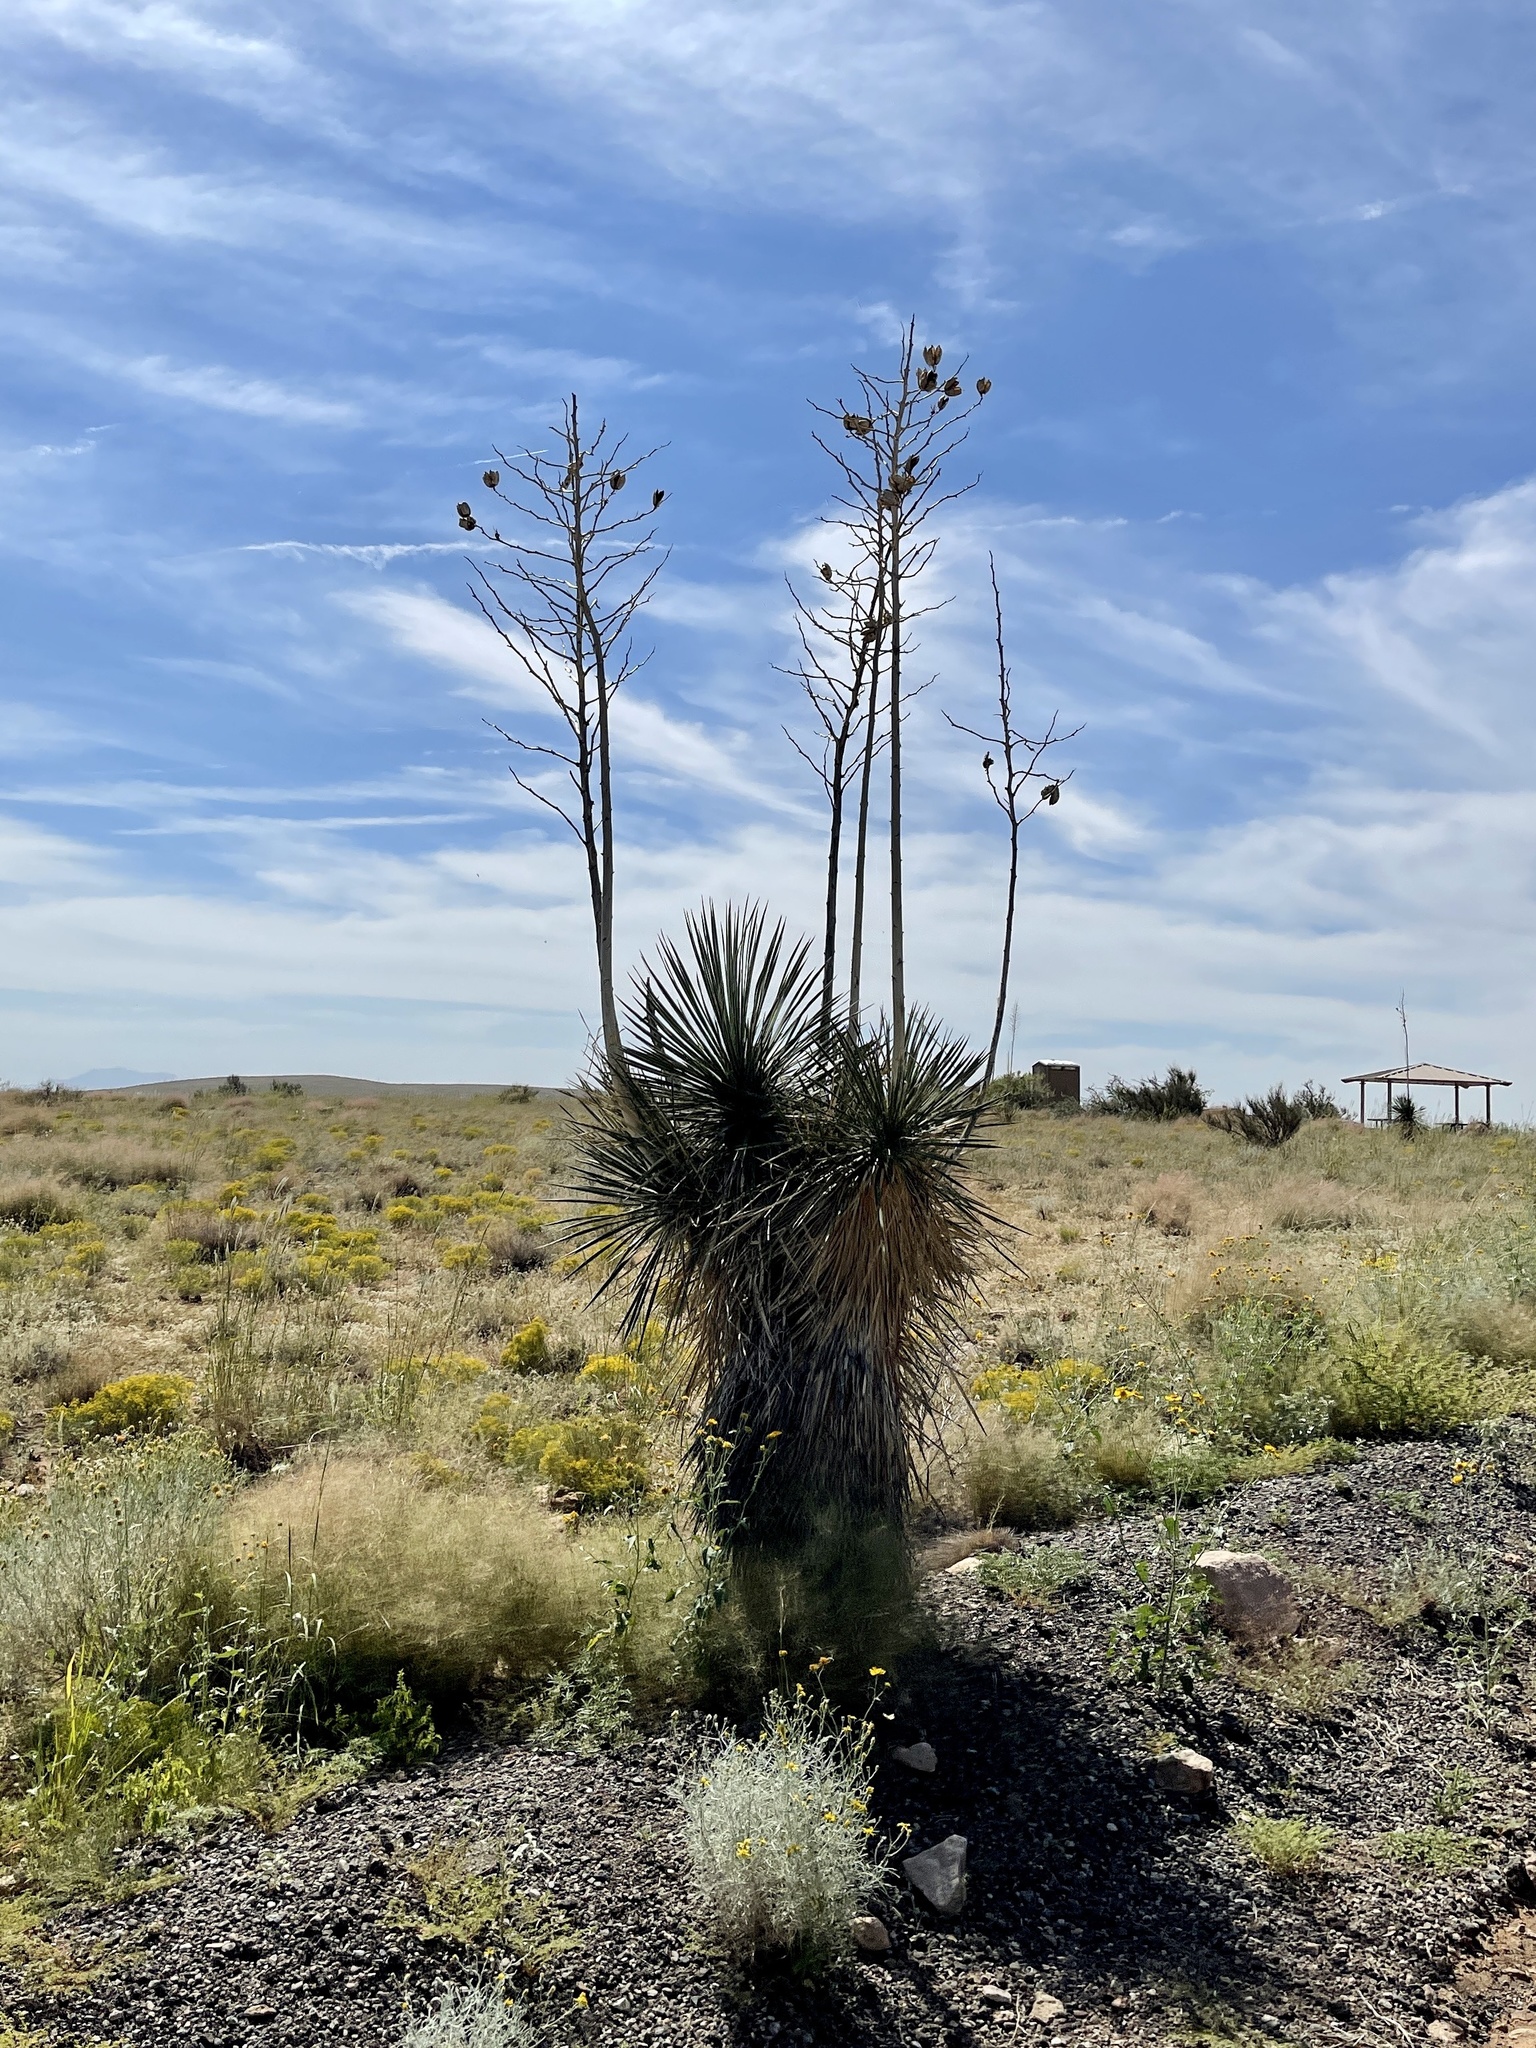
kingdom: Plantae
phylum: Tracheophyta
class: Liliopsida
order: Asparagales
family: Asparagaceae
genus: Yucca
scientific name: Yucca elata
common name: Palmella
